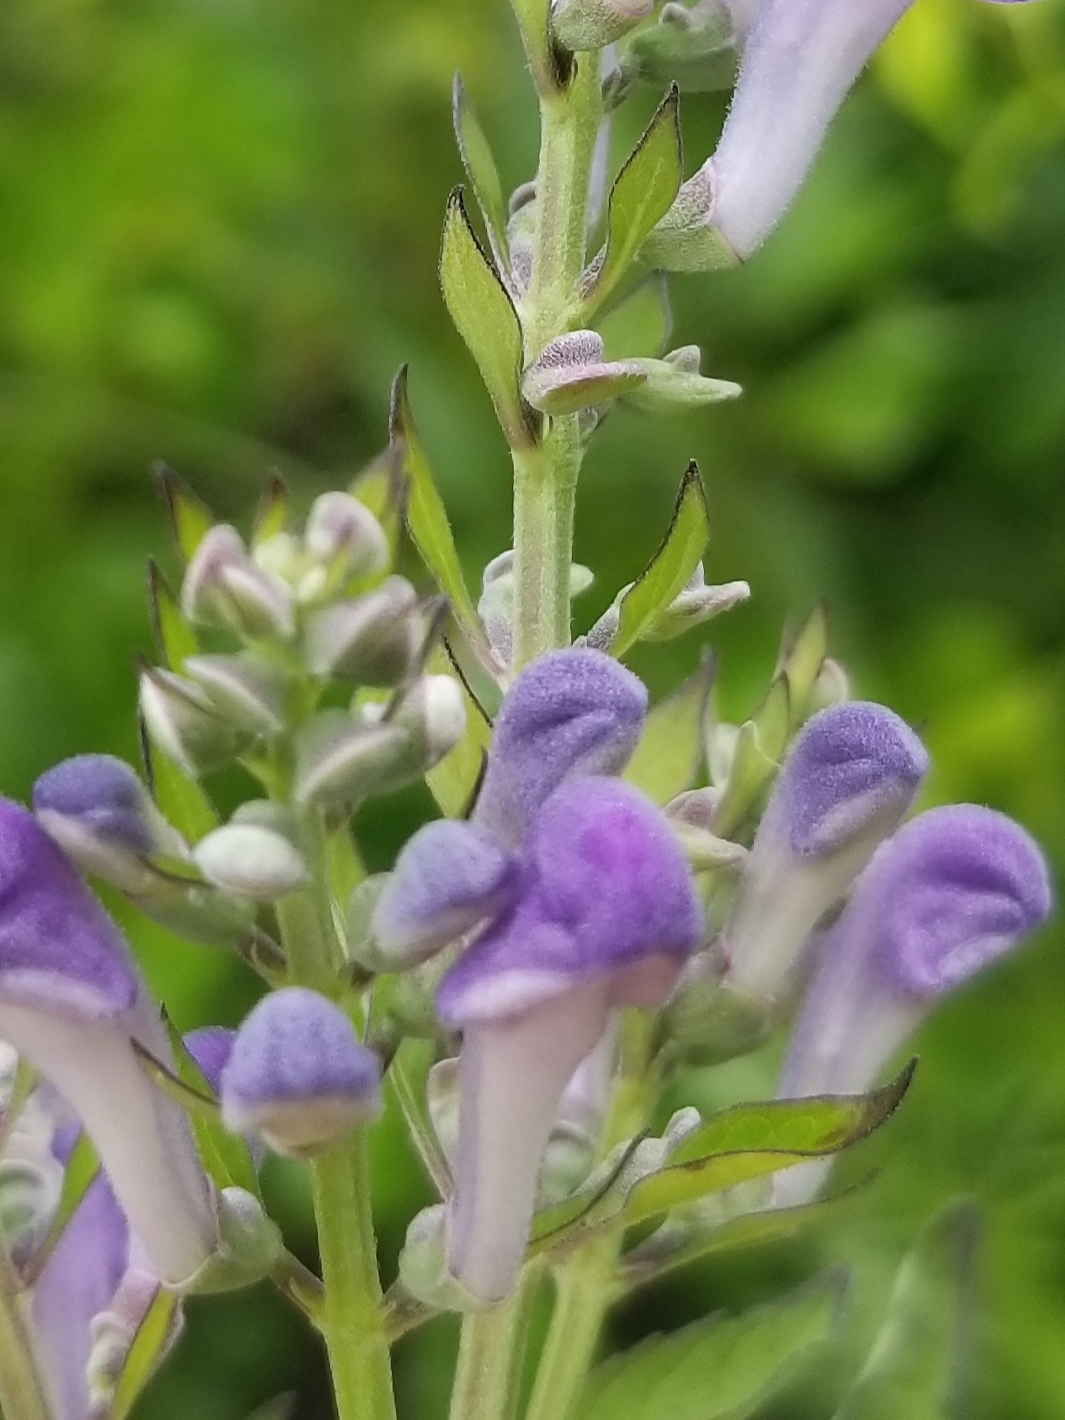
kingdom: Plantae
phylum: Tracheophyta
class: Magnoliopsida
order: Lamiales
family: Lamiaceae
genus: Scutellaria
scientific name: Scutellaria incana
